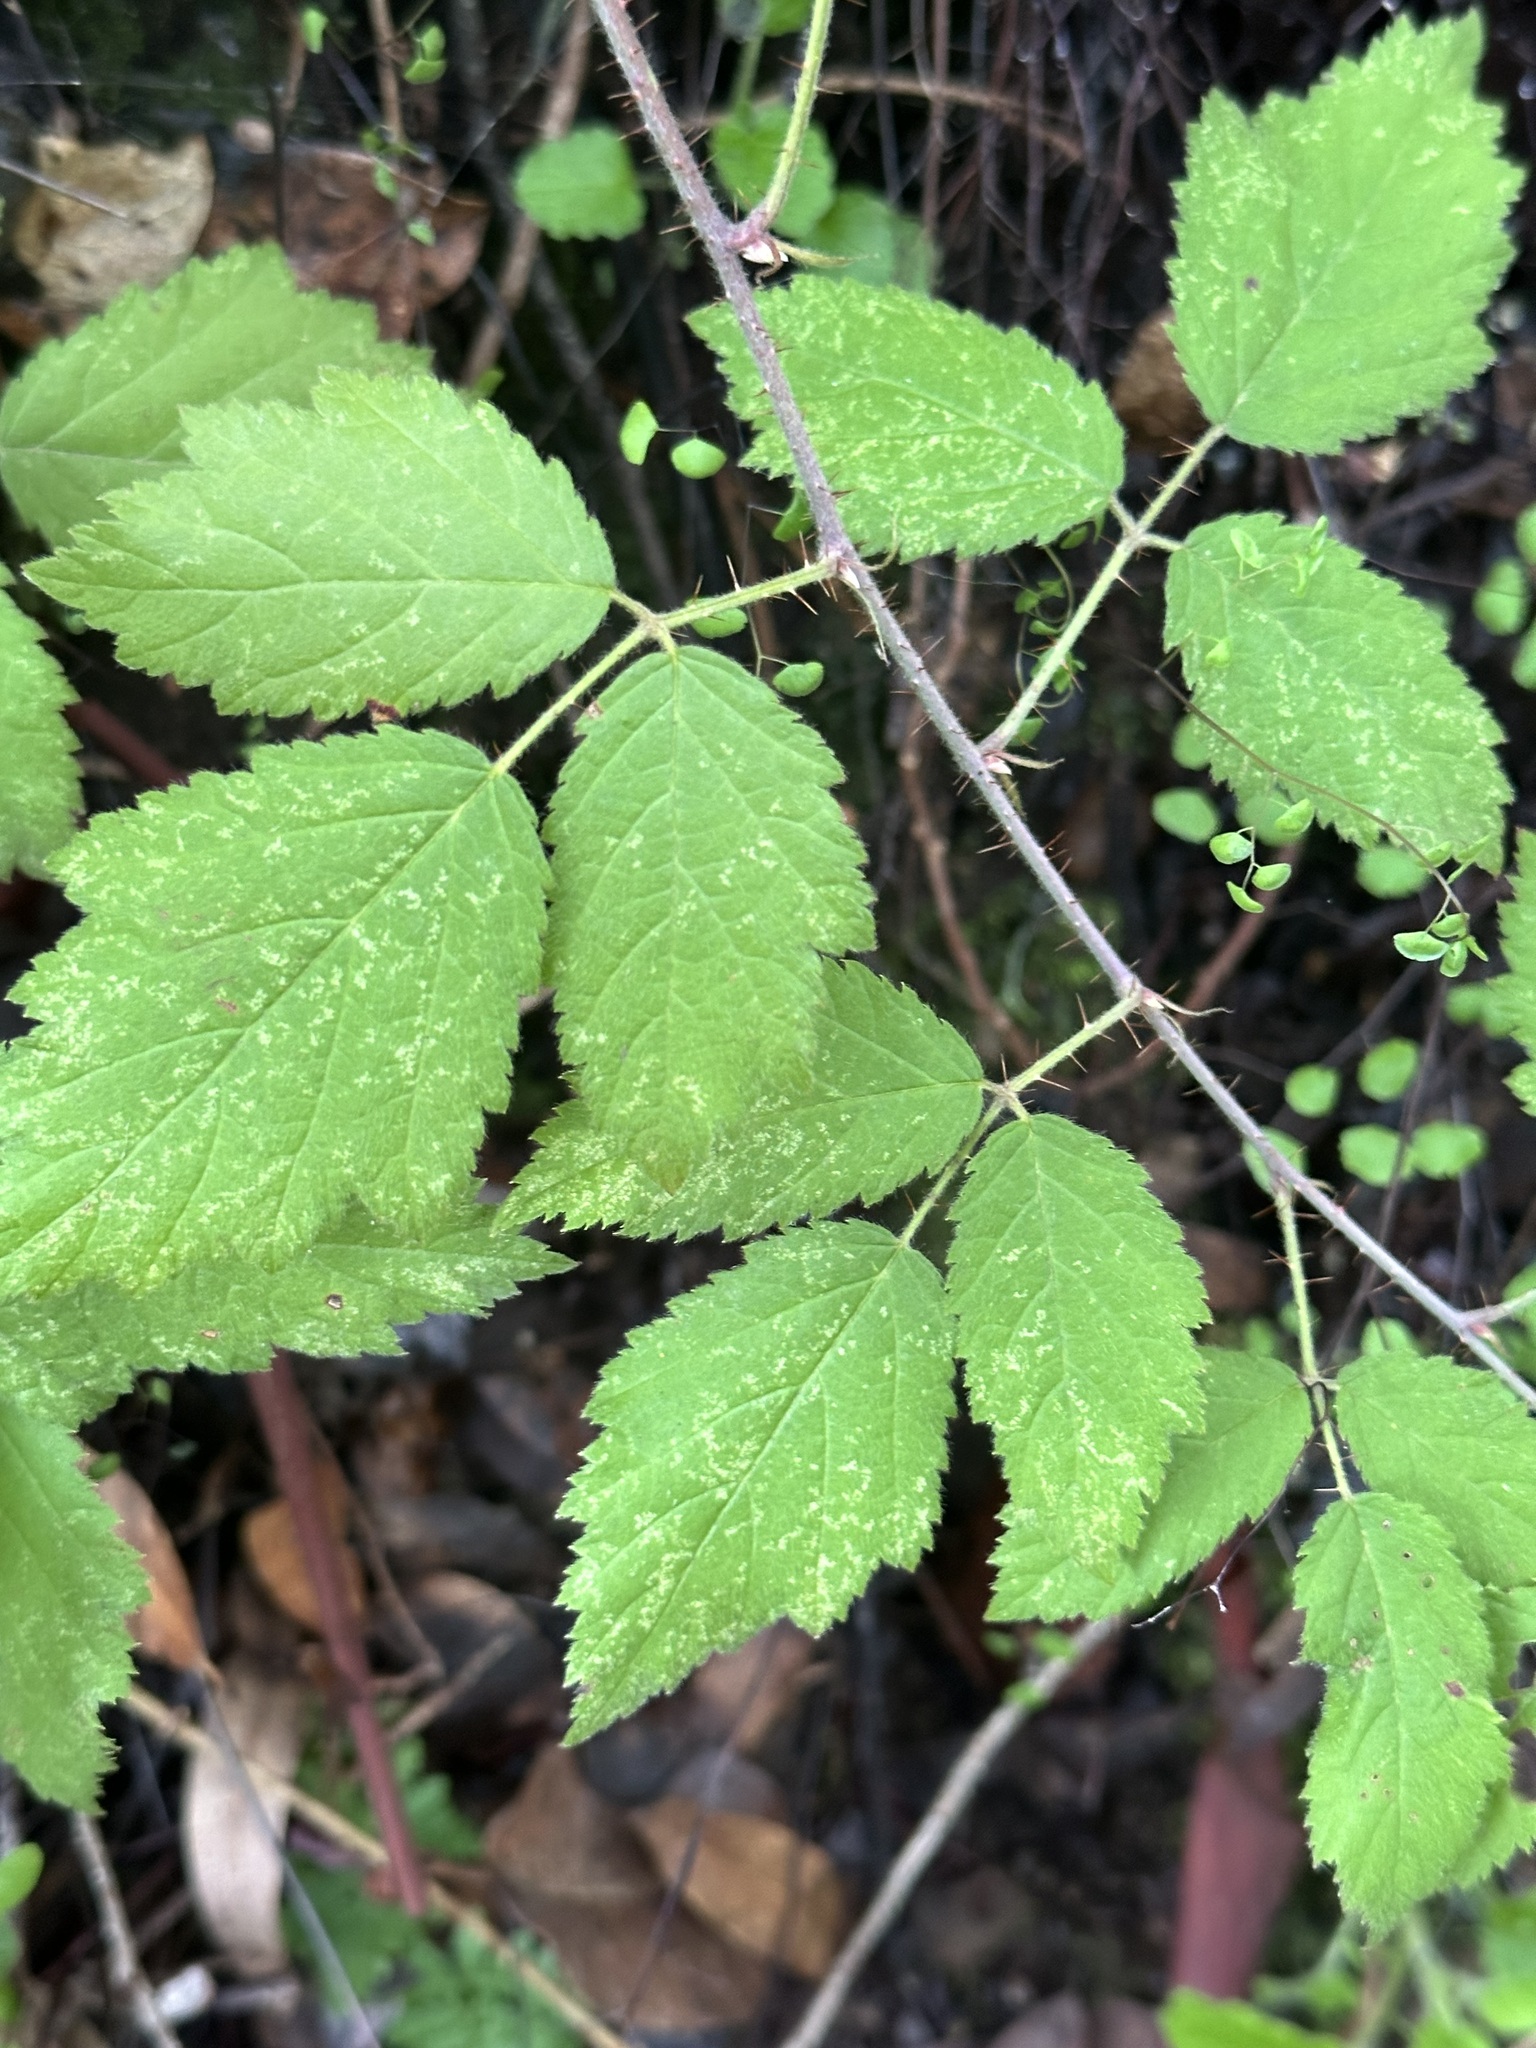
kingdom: Plantae
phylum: Tracheophyta
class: Magnoliopsida
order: Rosales
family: Rosaceae
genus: Rubus
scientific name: Rubus leucodermis
